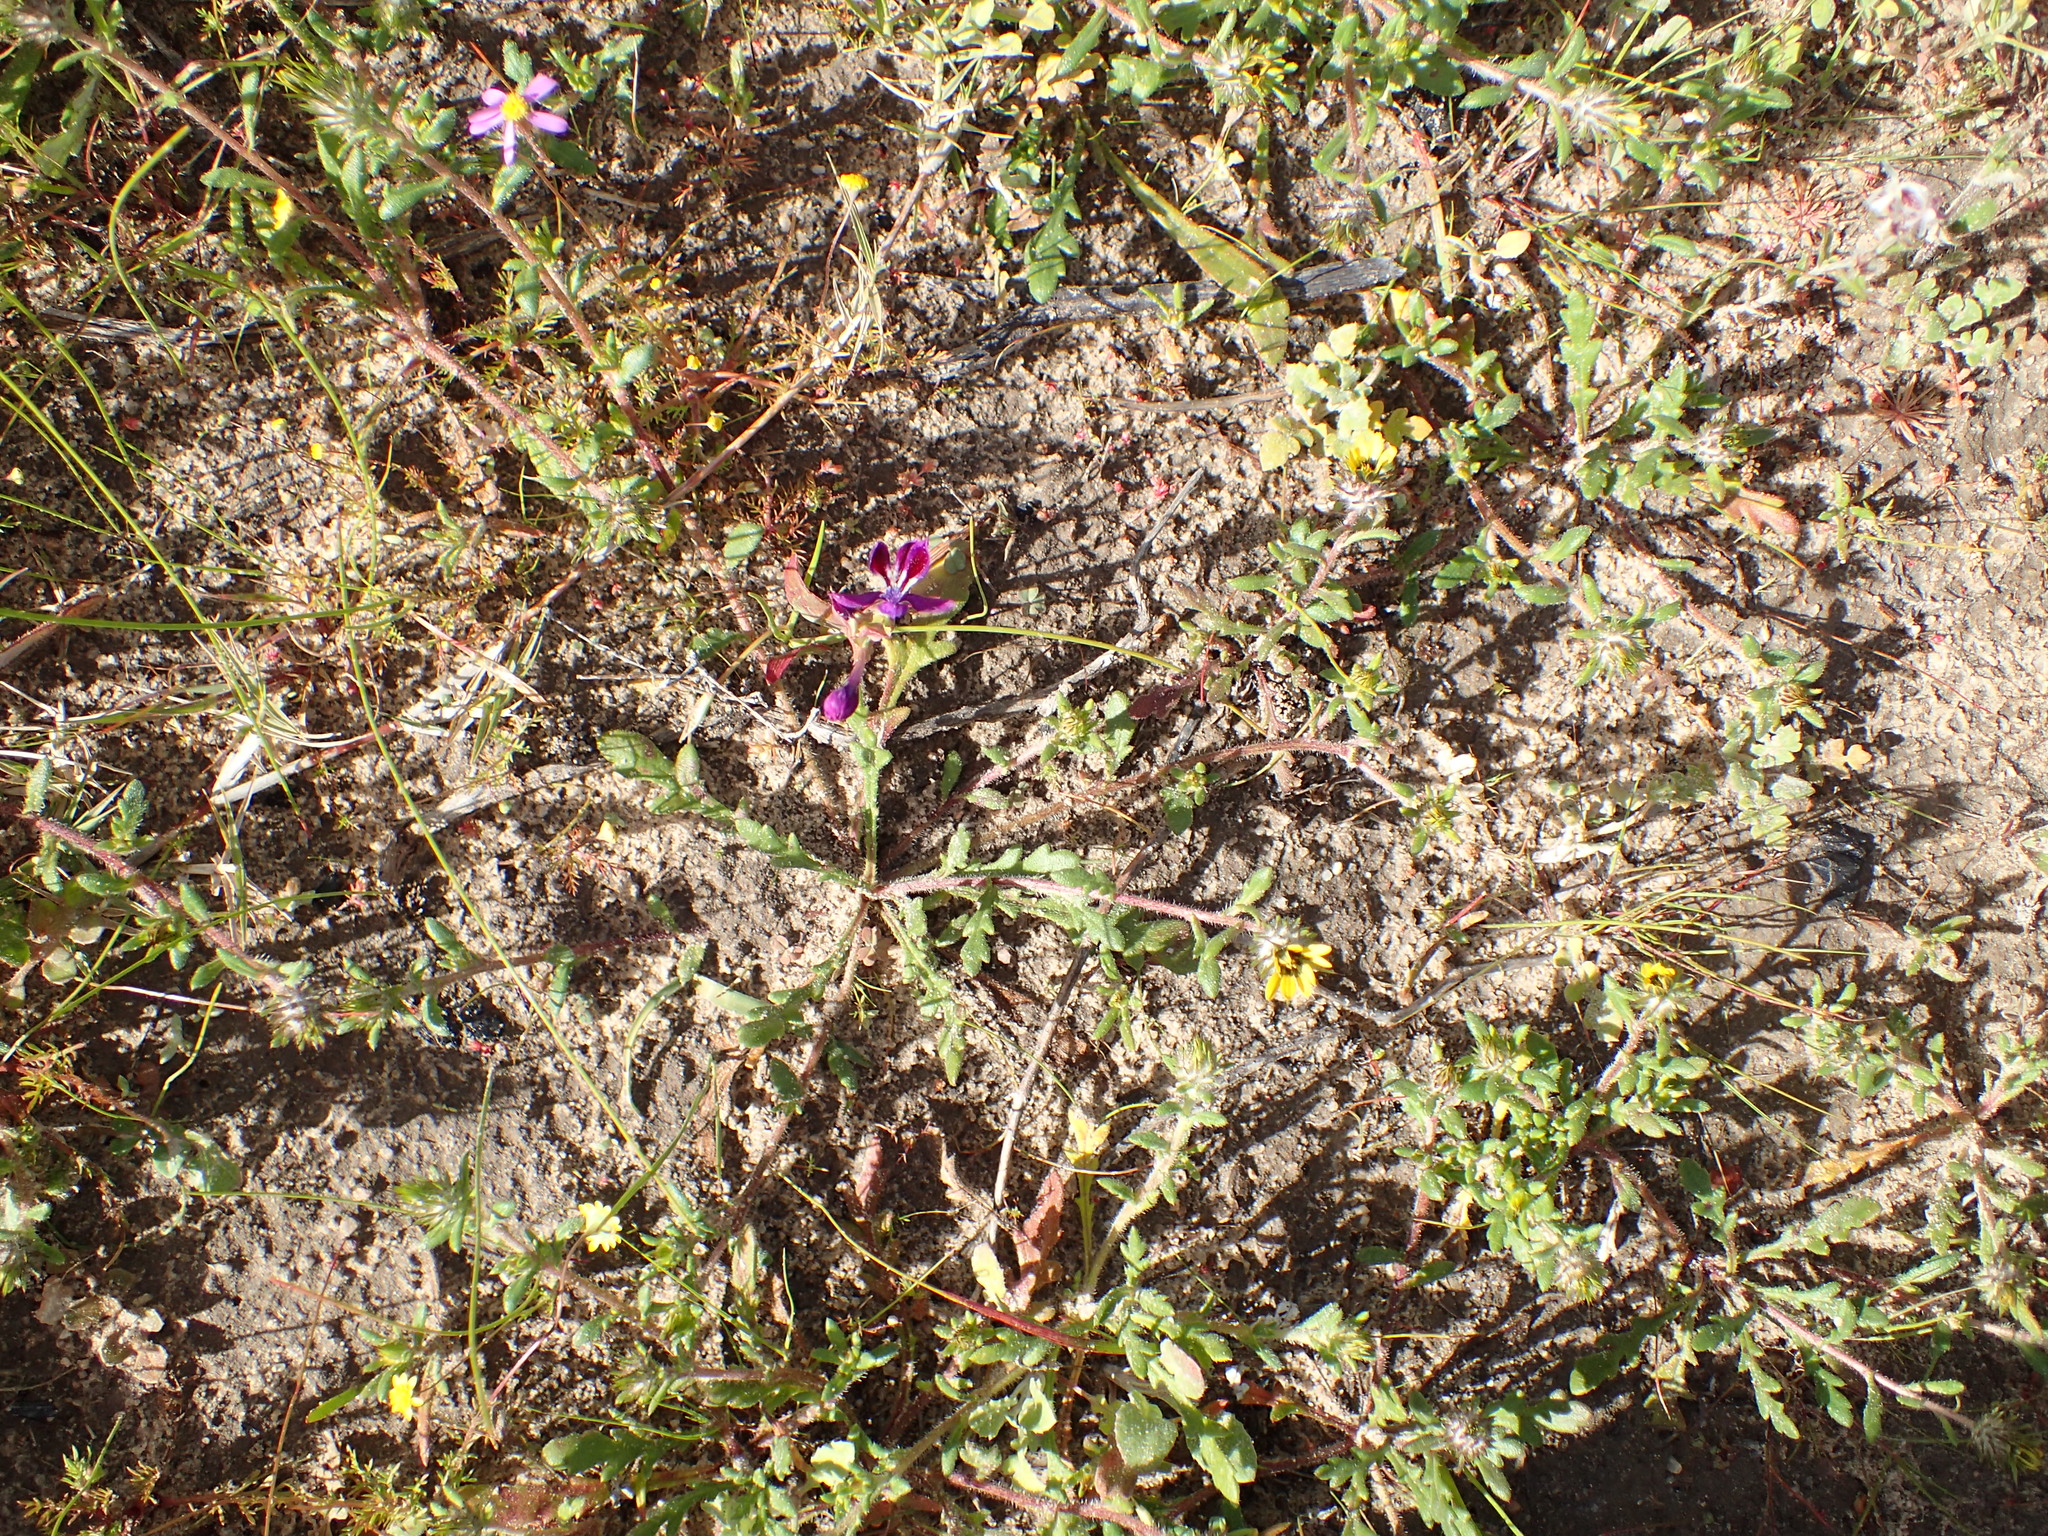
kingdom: Plantae
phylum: Tracheophyta
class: Magnoliopsida
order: Asterales
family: Asteraceae
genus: Gorteria
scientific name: Gorteria personata
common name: Gorteria
